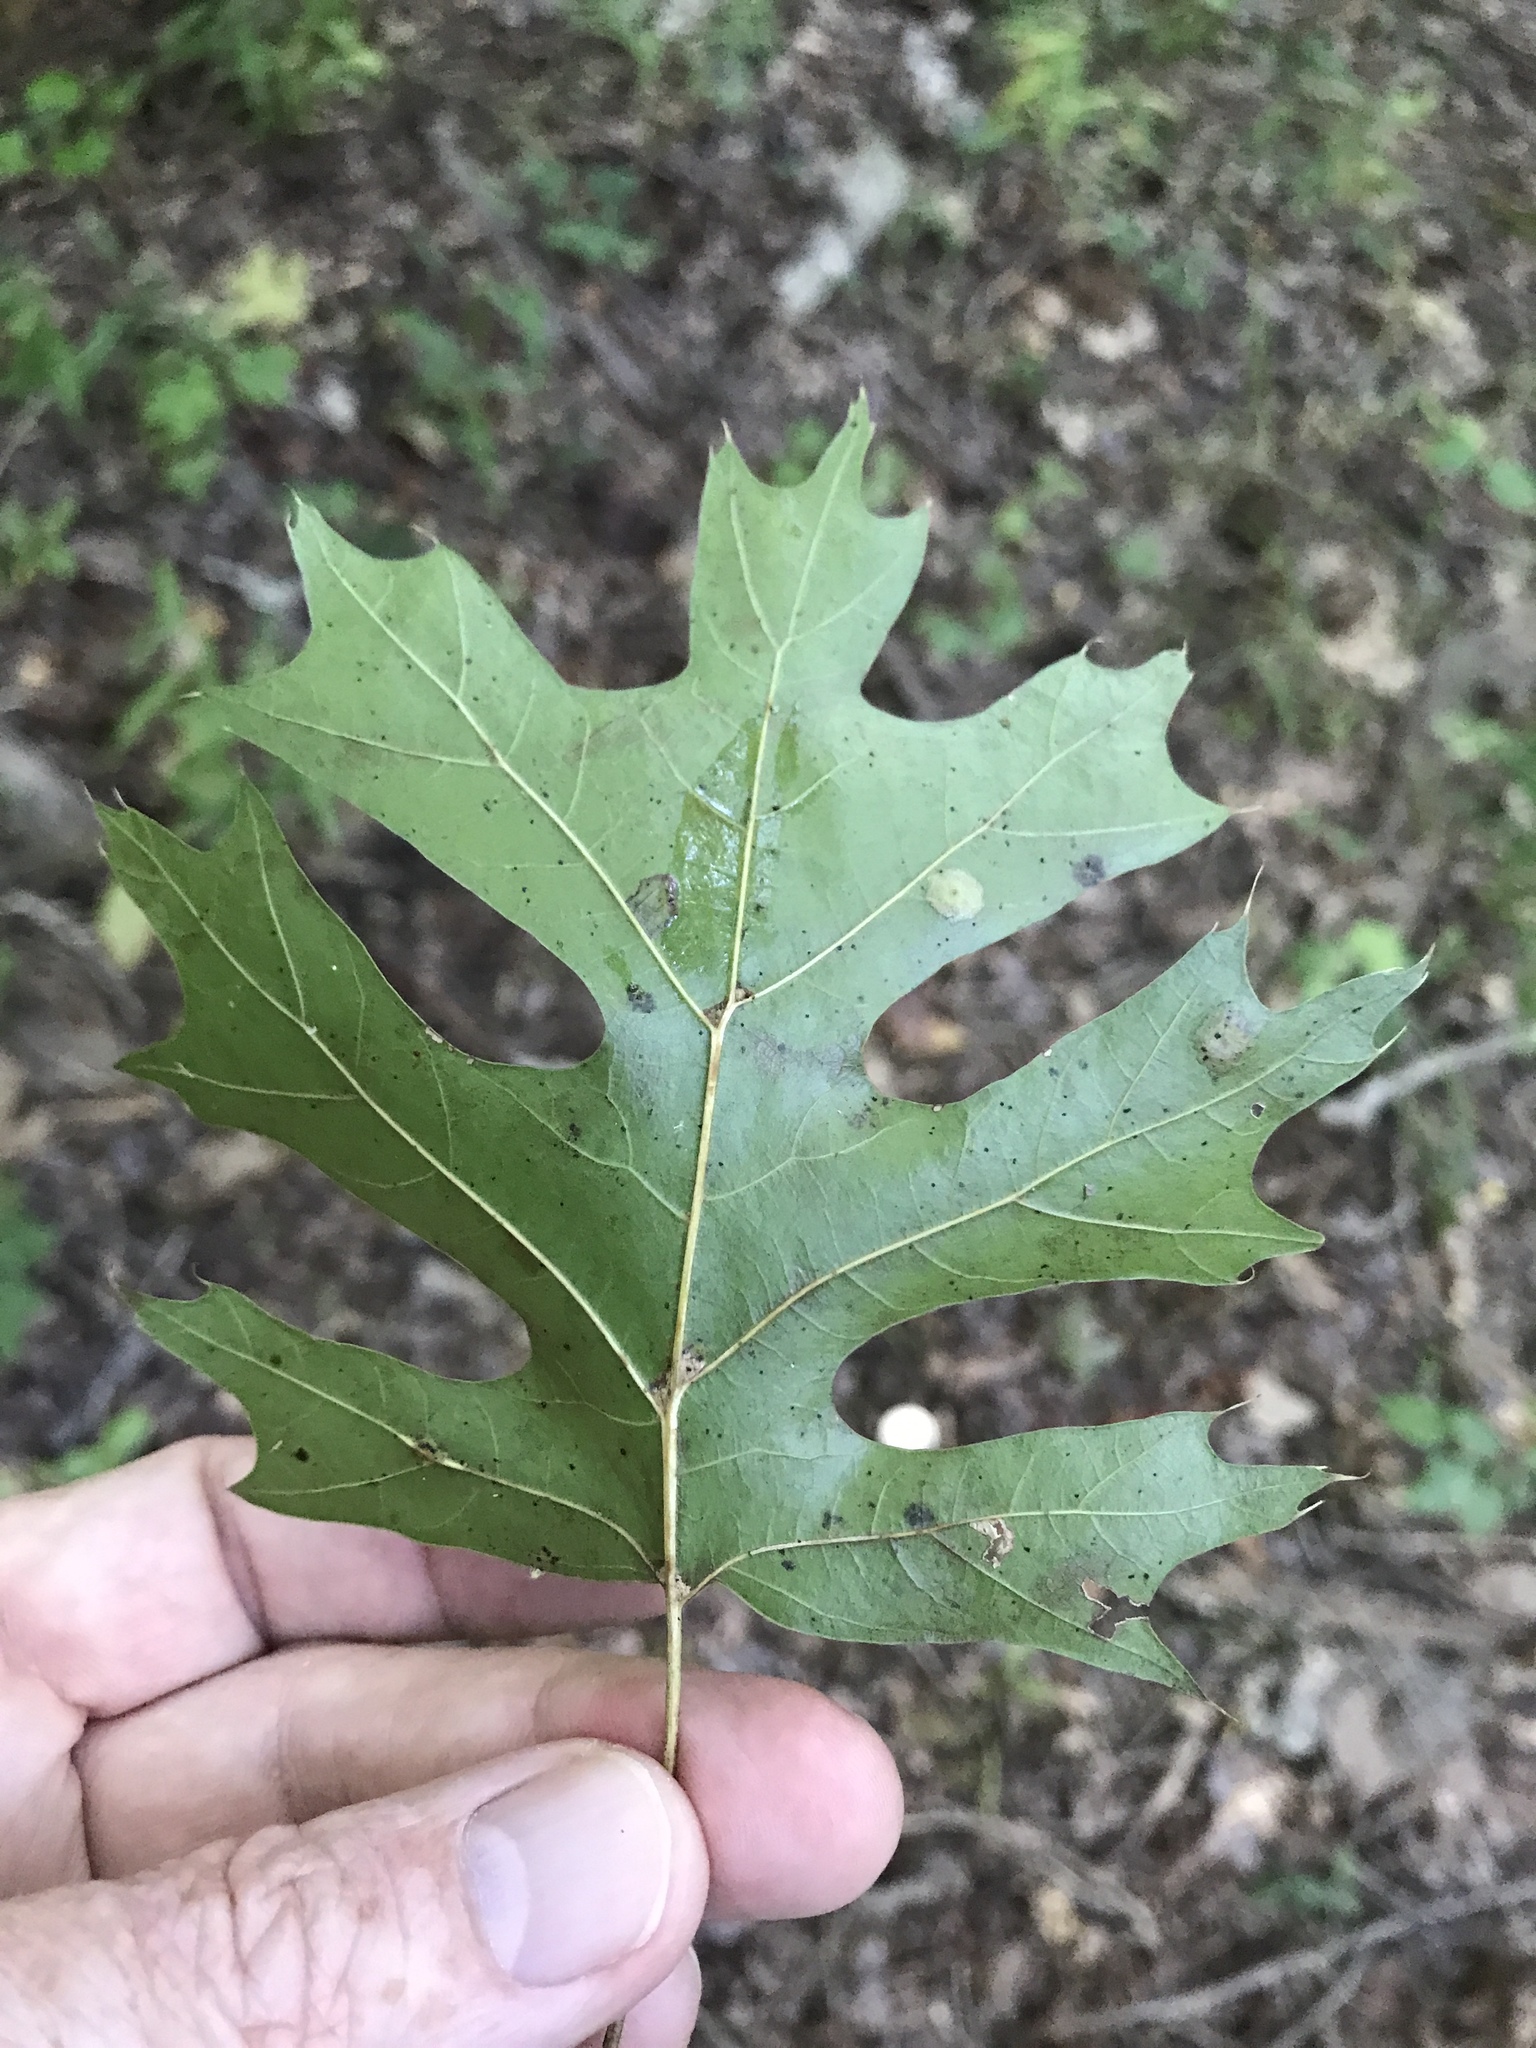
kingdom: Plantae
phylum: Tracheophyta
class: Magnoliopsida
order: Fagales
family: Fagaceae
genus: Quercus
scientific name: Quercus shumardii
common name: Shumard oak
